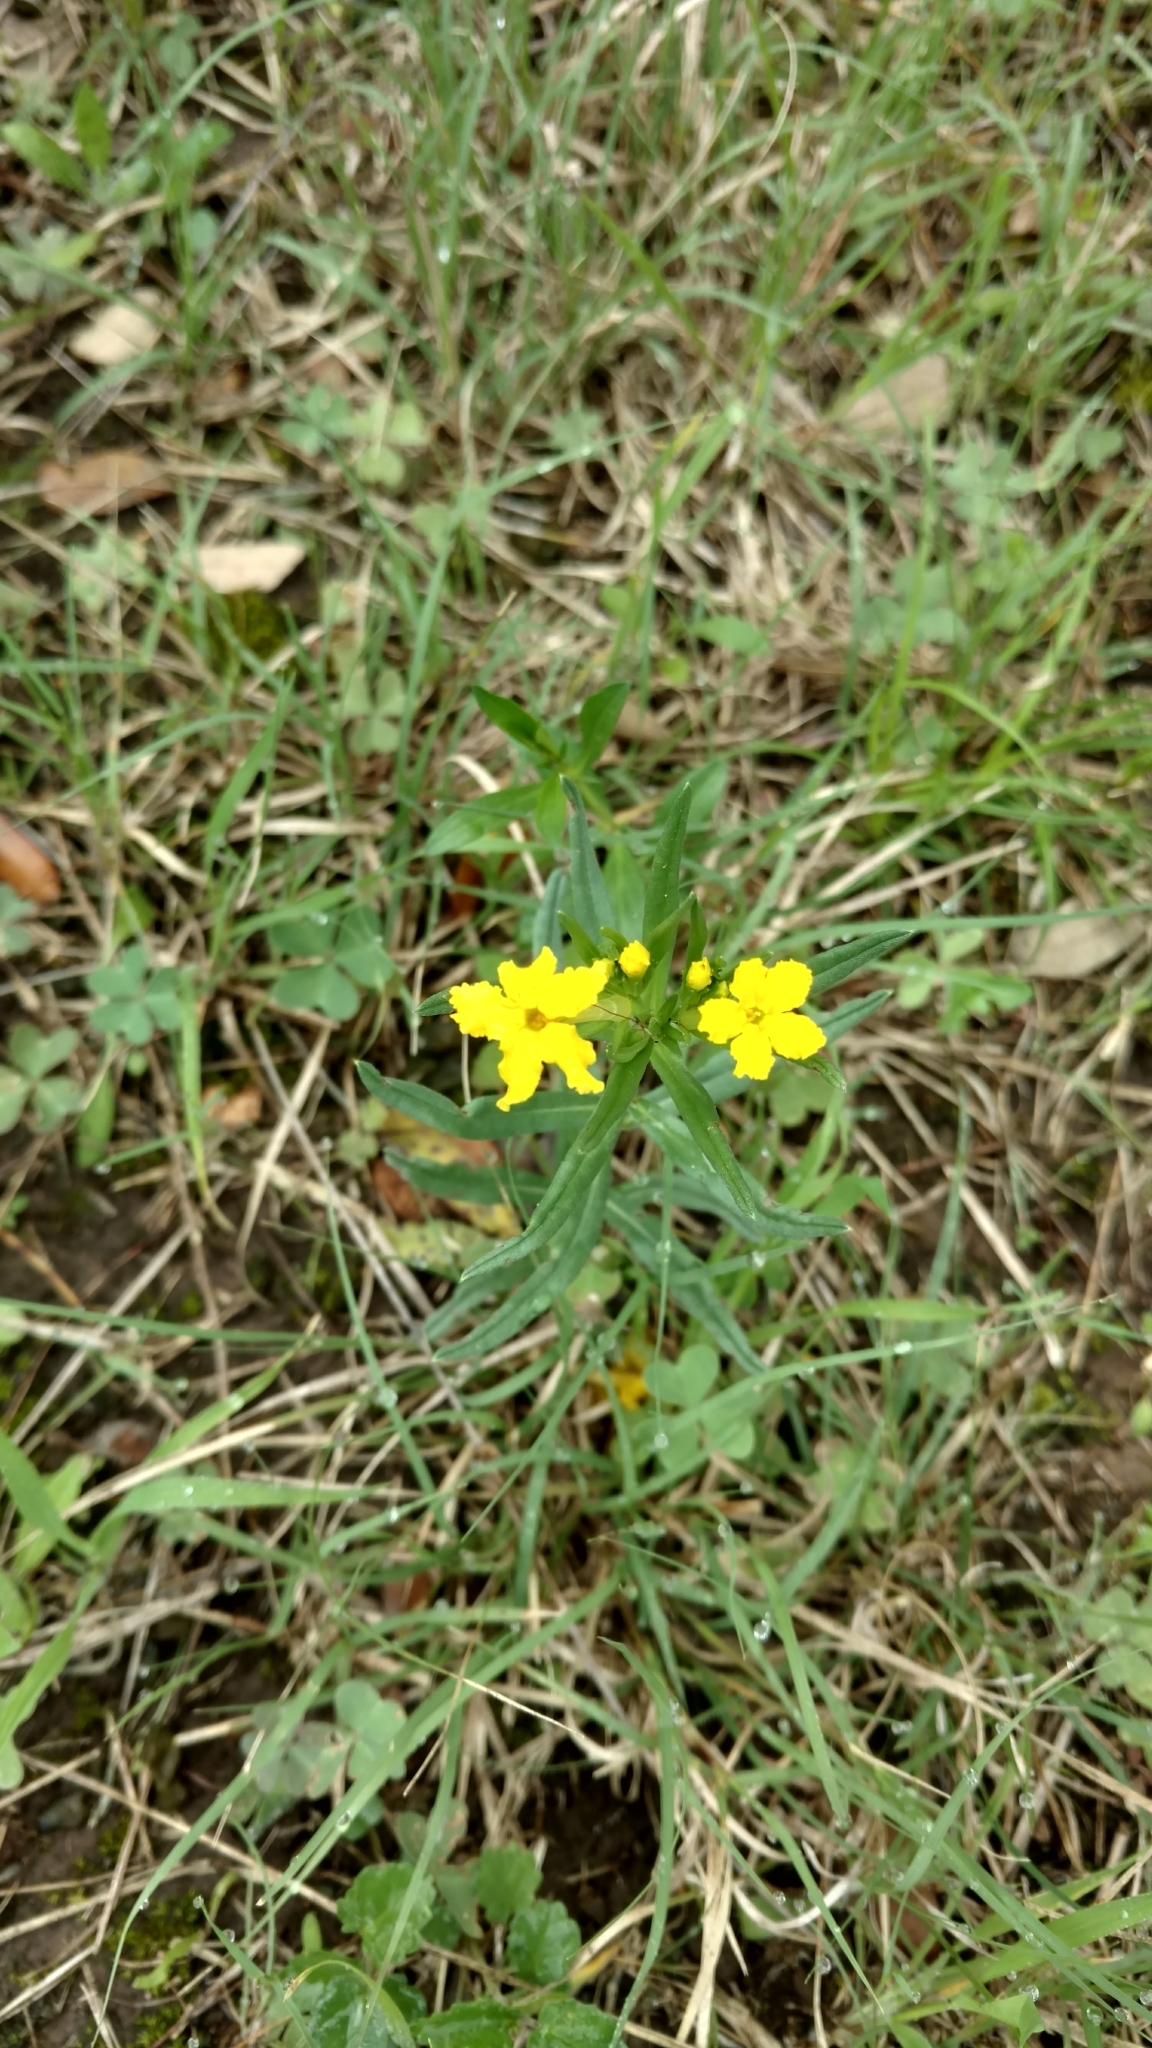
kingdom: Plantae
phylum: Tracheophyta
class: Magnoliopsida
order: Boraginales
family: Boraginaceae
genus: Lithospermum
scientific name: Lithospermum incisum
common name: Fringed gromwell
